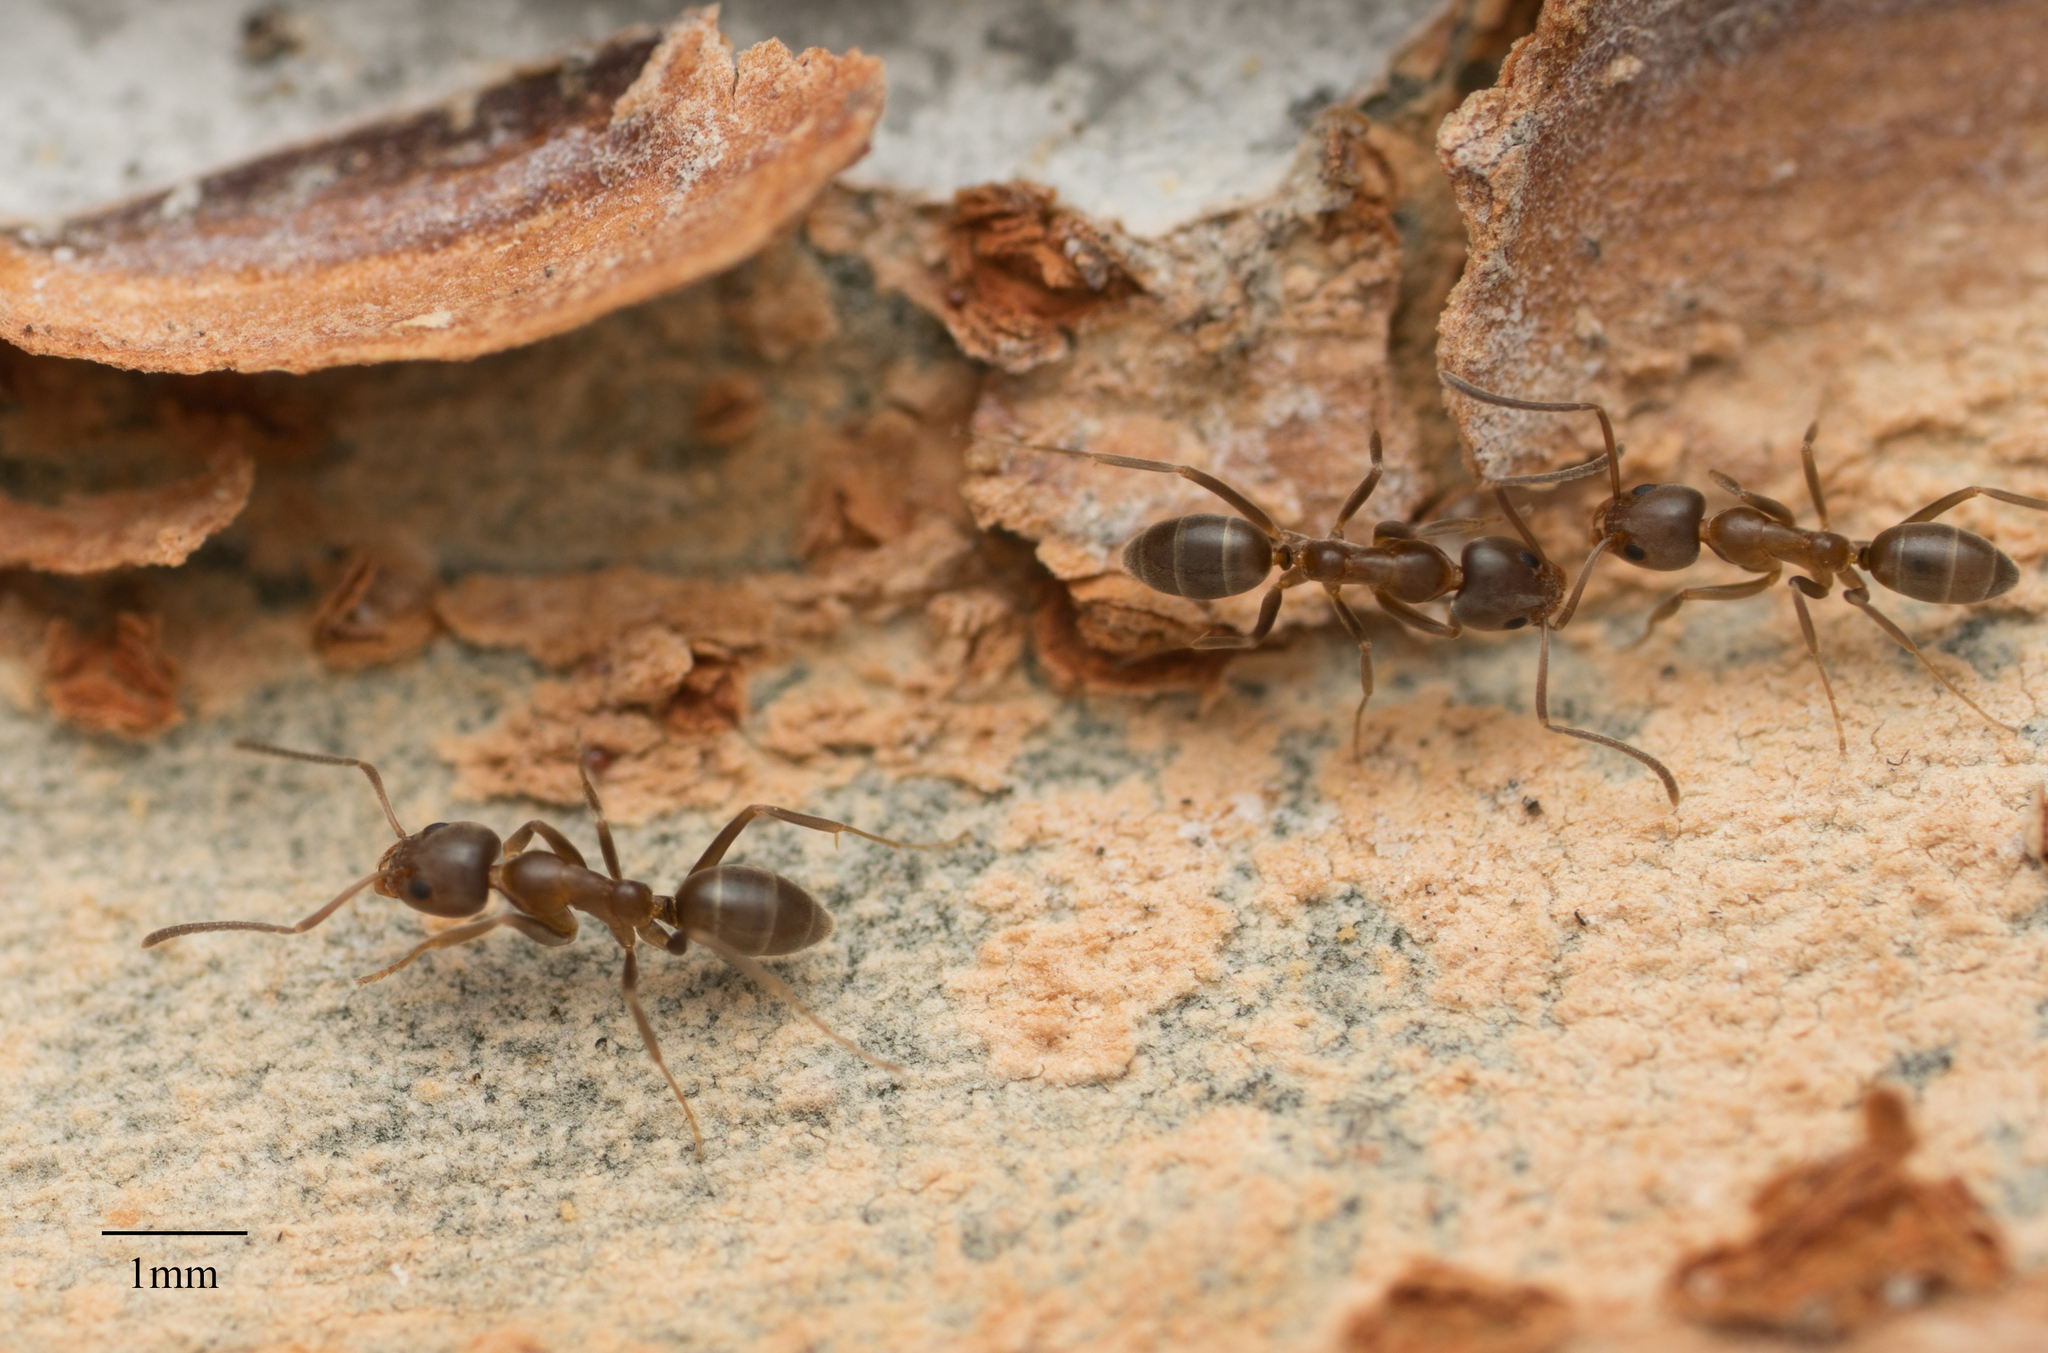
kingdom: Animalia
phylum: Arthropoda
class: Insecta
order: Hymenoptera
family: Formicidae
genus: Linepithema
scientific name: Linepithema humile
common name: Argentine ant
